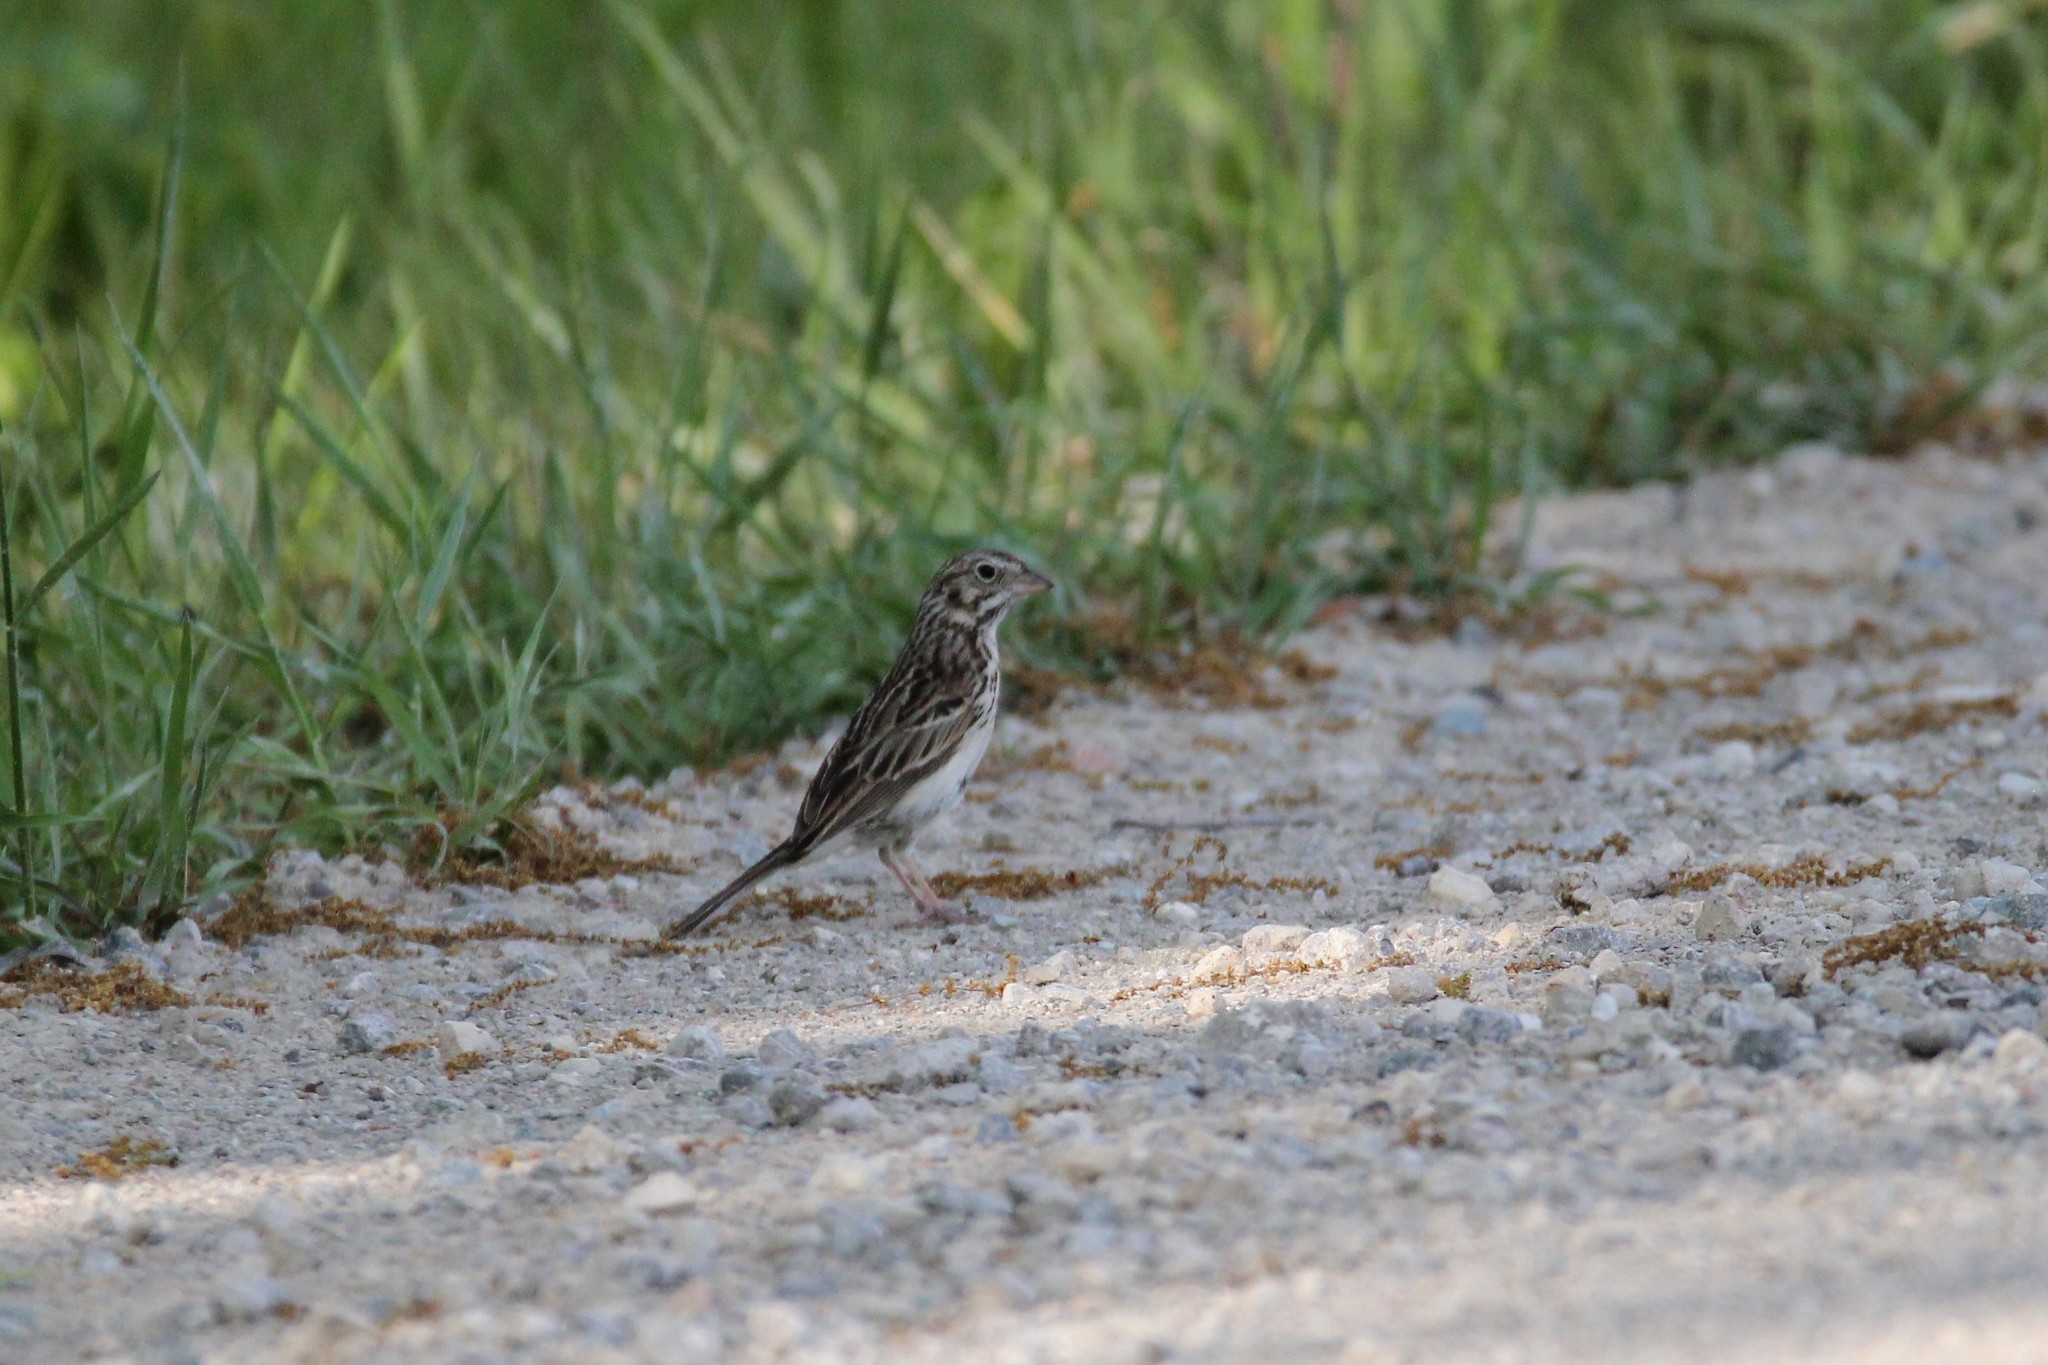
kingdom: Animalia
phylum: Chordata
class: Aves
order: Passeriformes
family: Passerellidae
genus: Pooecetes
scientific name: Pooecetes gramineus
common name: Vesper sparrow
